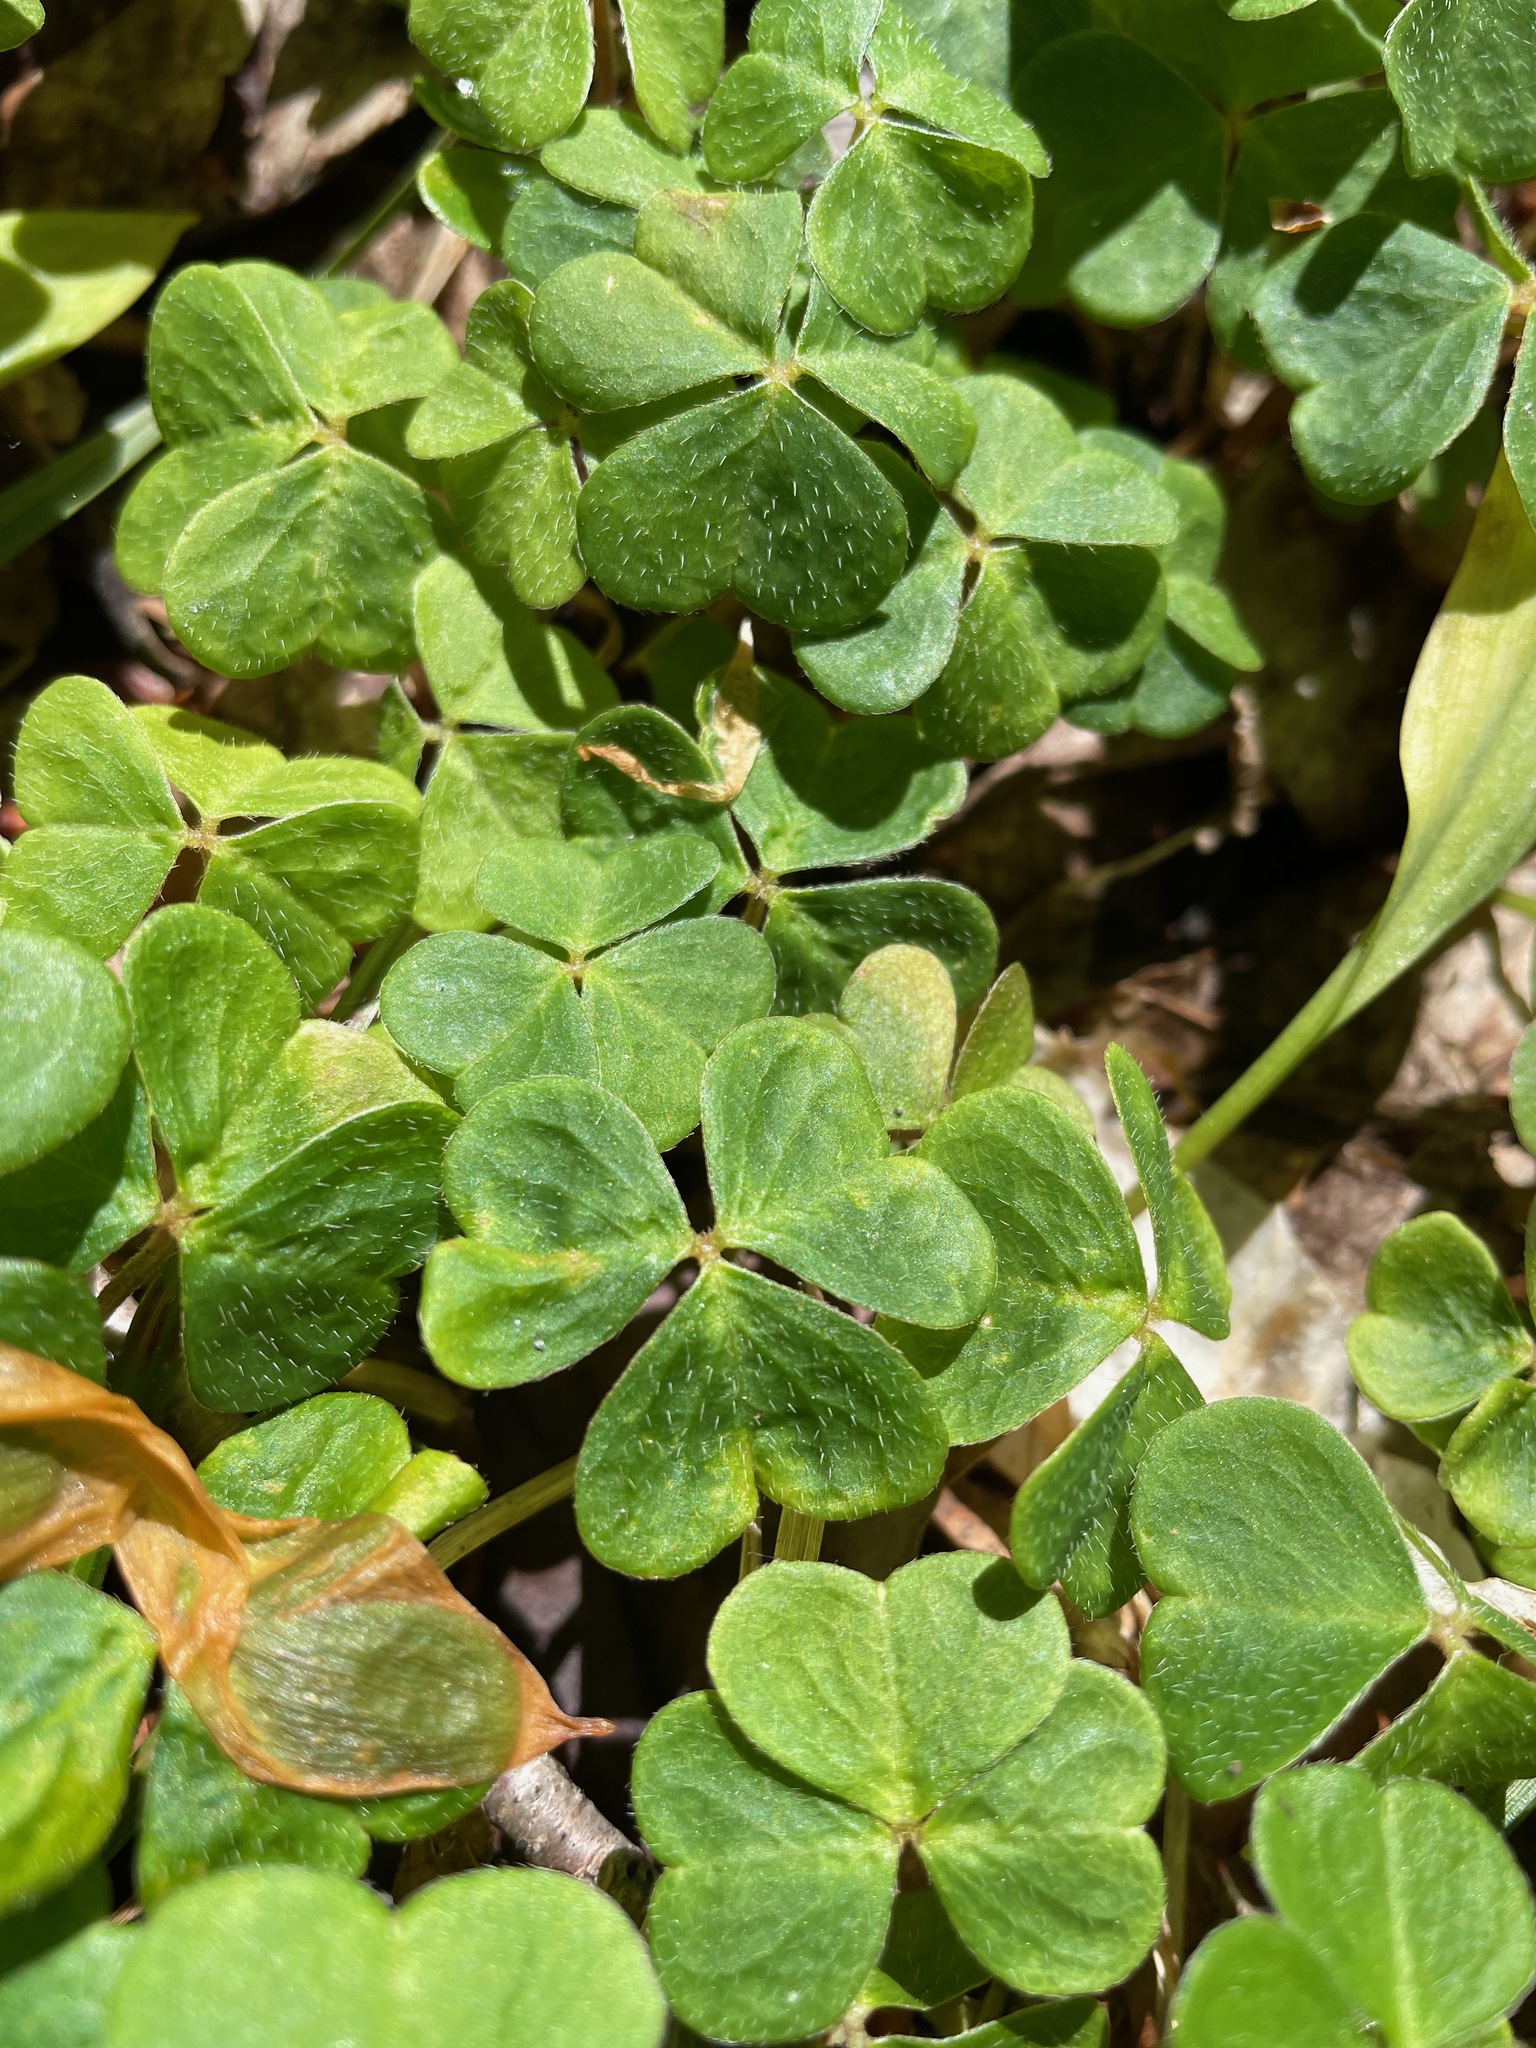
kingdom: Plantae
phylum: Tracheophyta
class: Magnoliopsida
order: Oxalidales
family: Oxalidaceae
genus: Oxalis
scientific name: Oxalis montana
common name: American wood-sorrel
